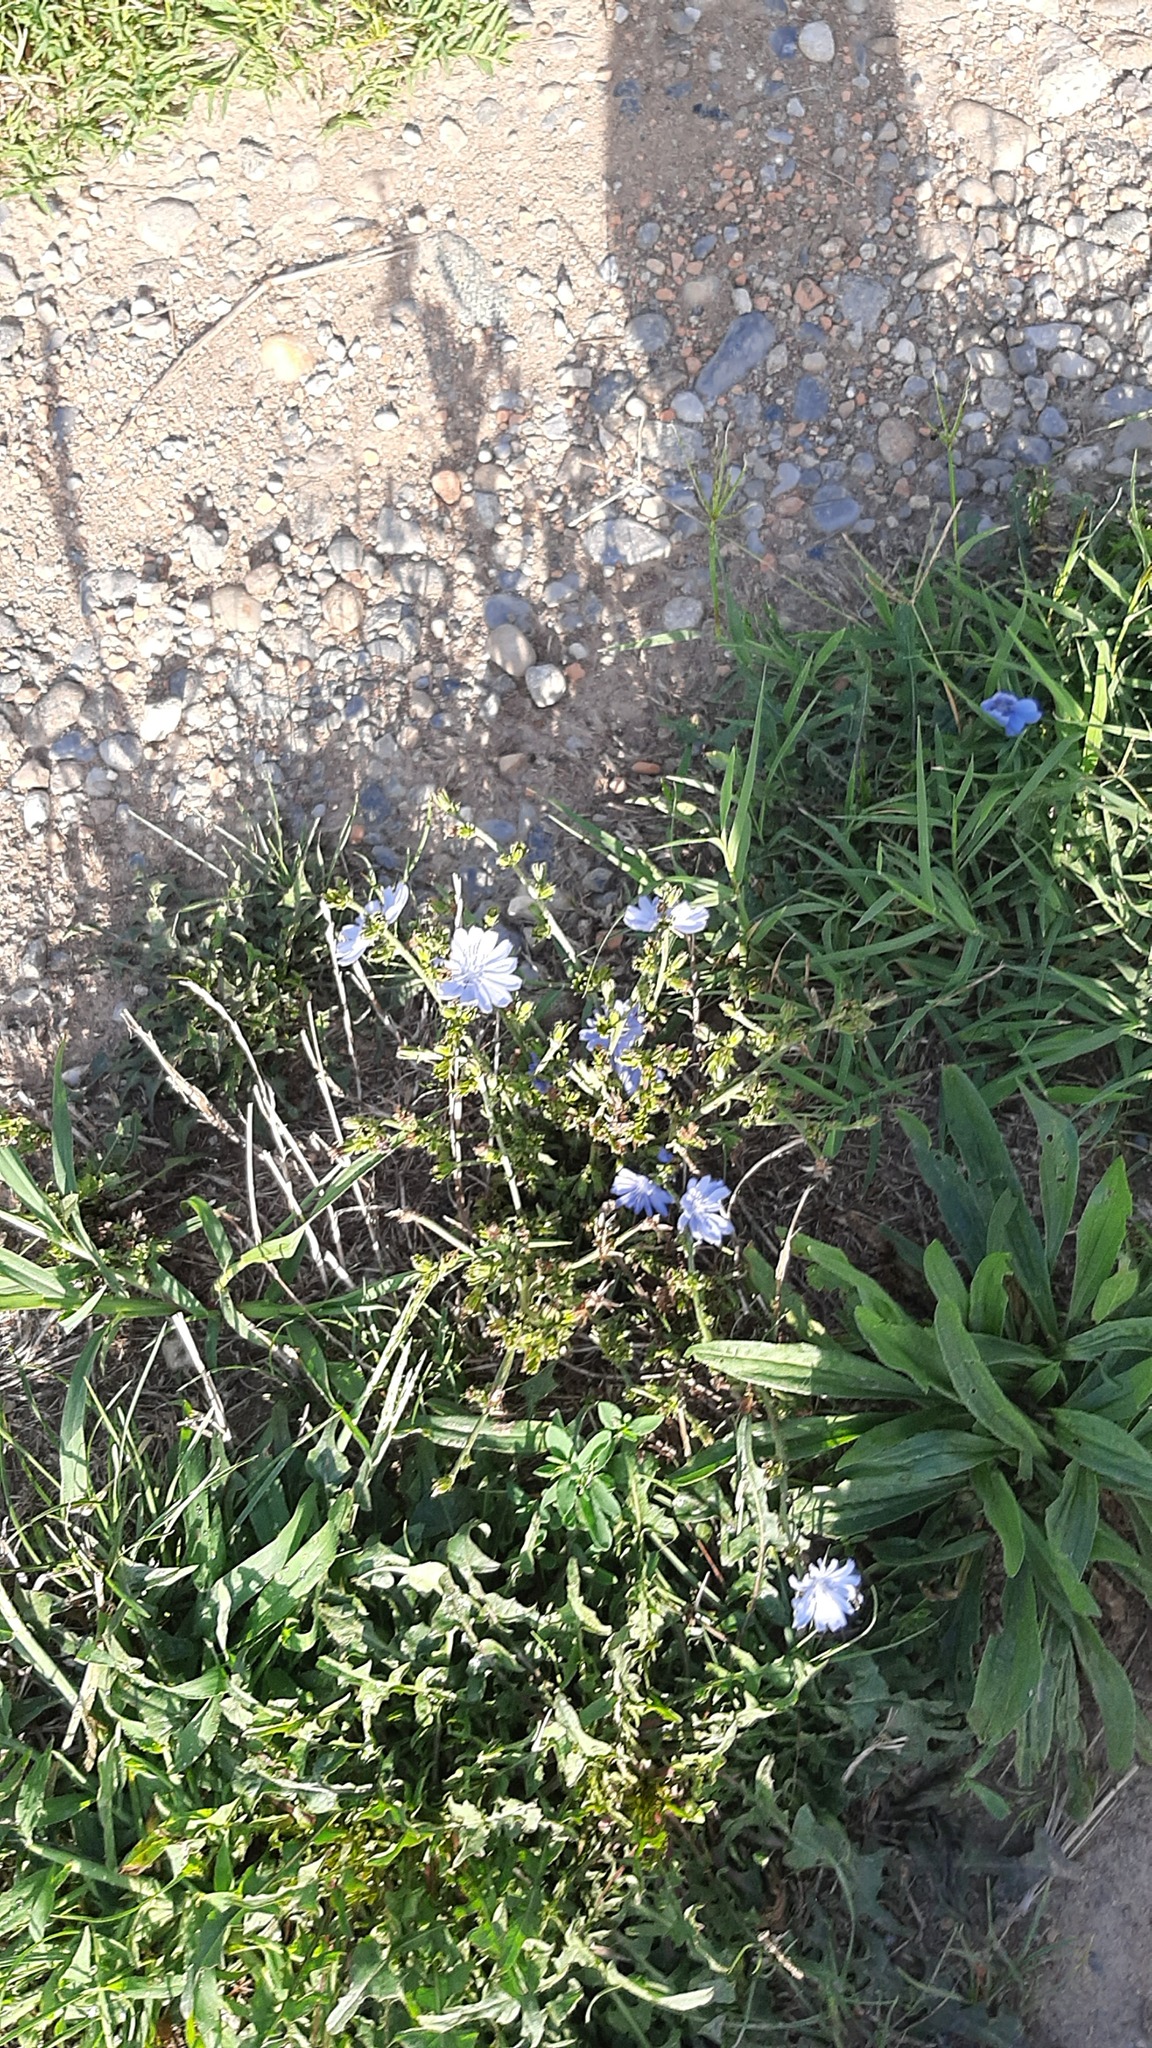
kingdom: Plantae
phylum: Tracheophyta
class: Magnoliopsida
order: Asterales
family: Asteraceae
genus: Cichorium
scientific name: Cichorium intybus
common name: Chicory
